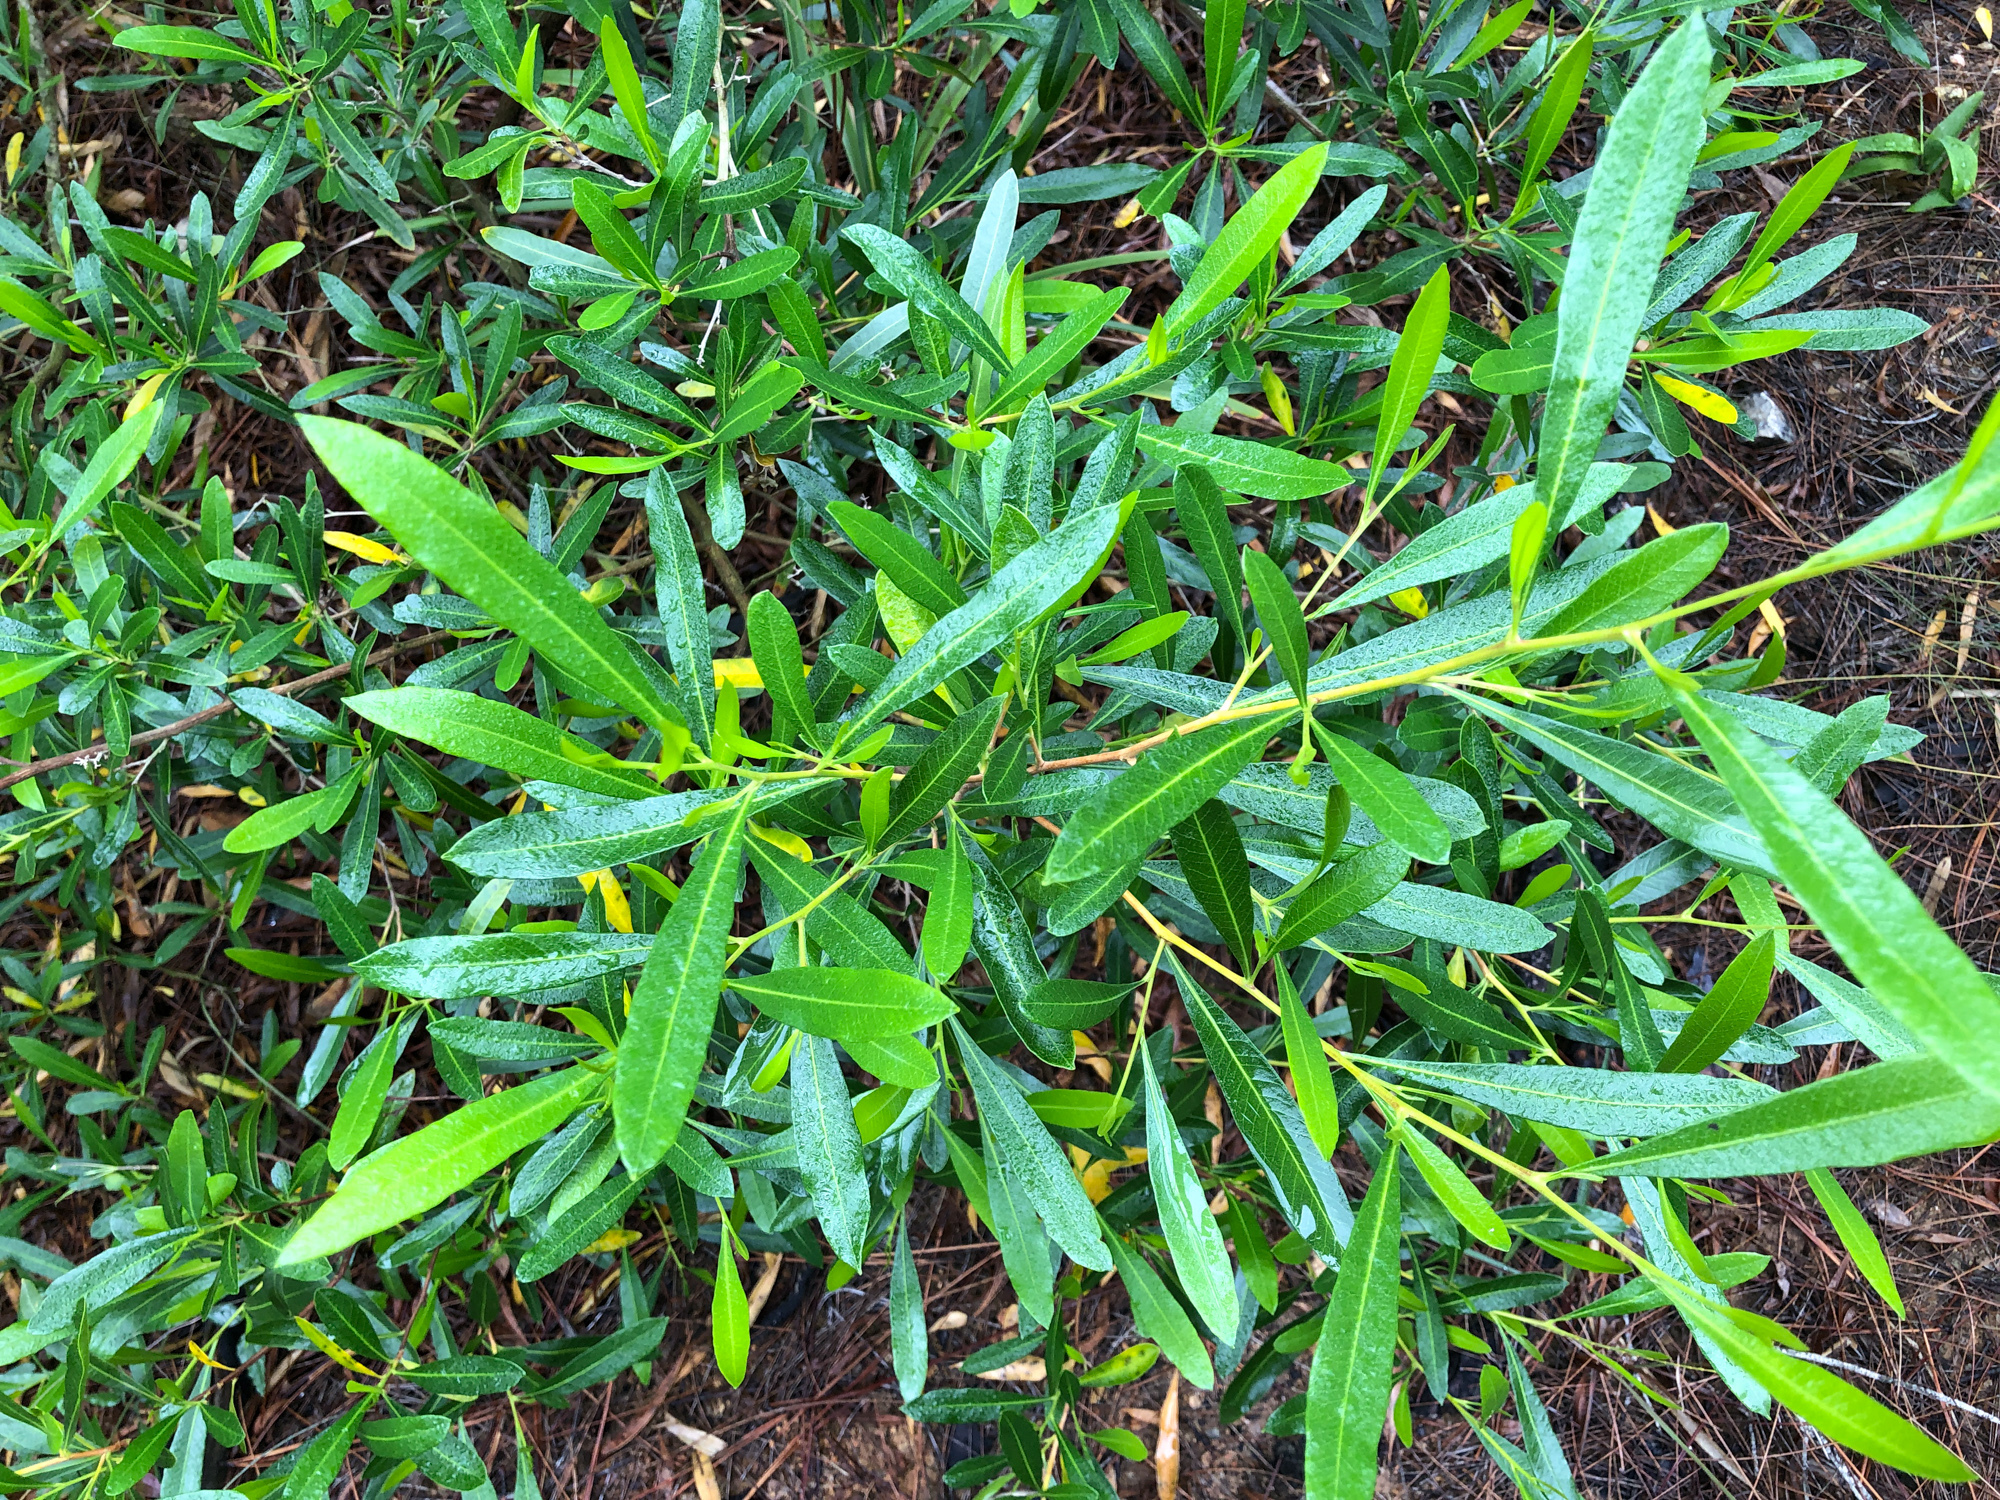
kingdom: Plantae
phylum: Tracheophyta
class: Magnoliopsida
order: Sapindales
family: Sapindaceae
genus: Dodonaea
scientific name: Dodonaea viscosa
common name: Hopbush
